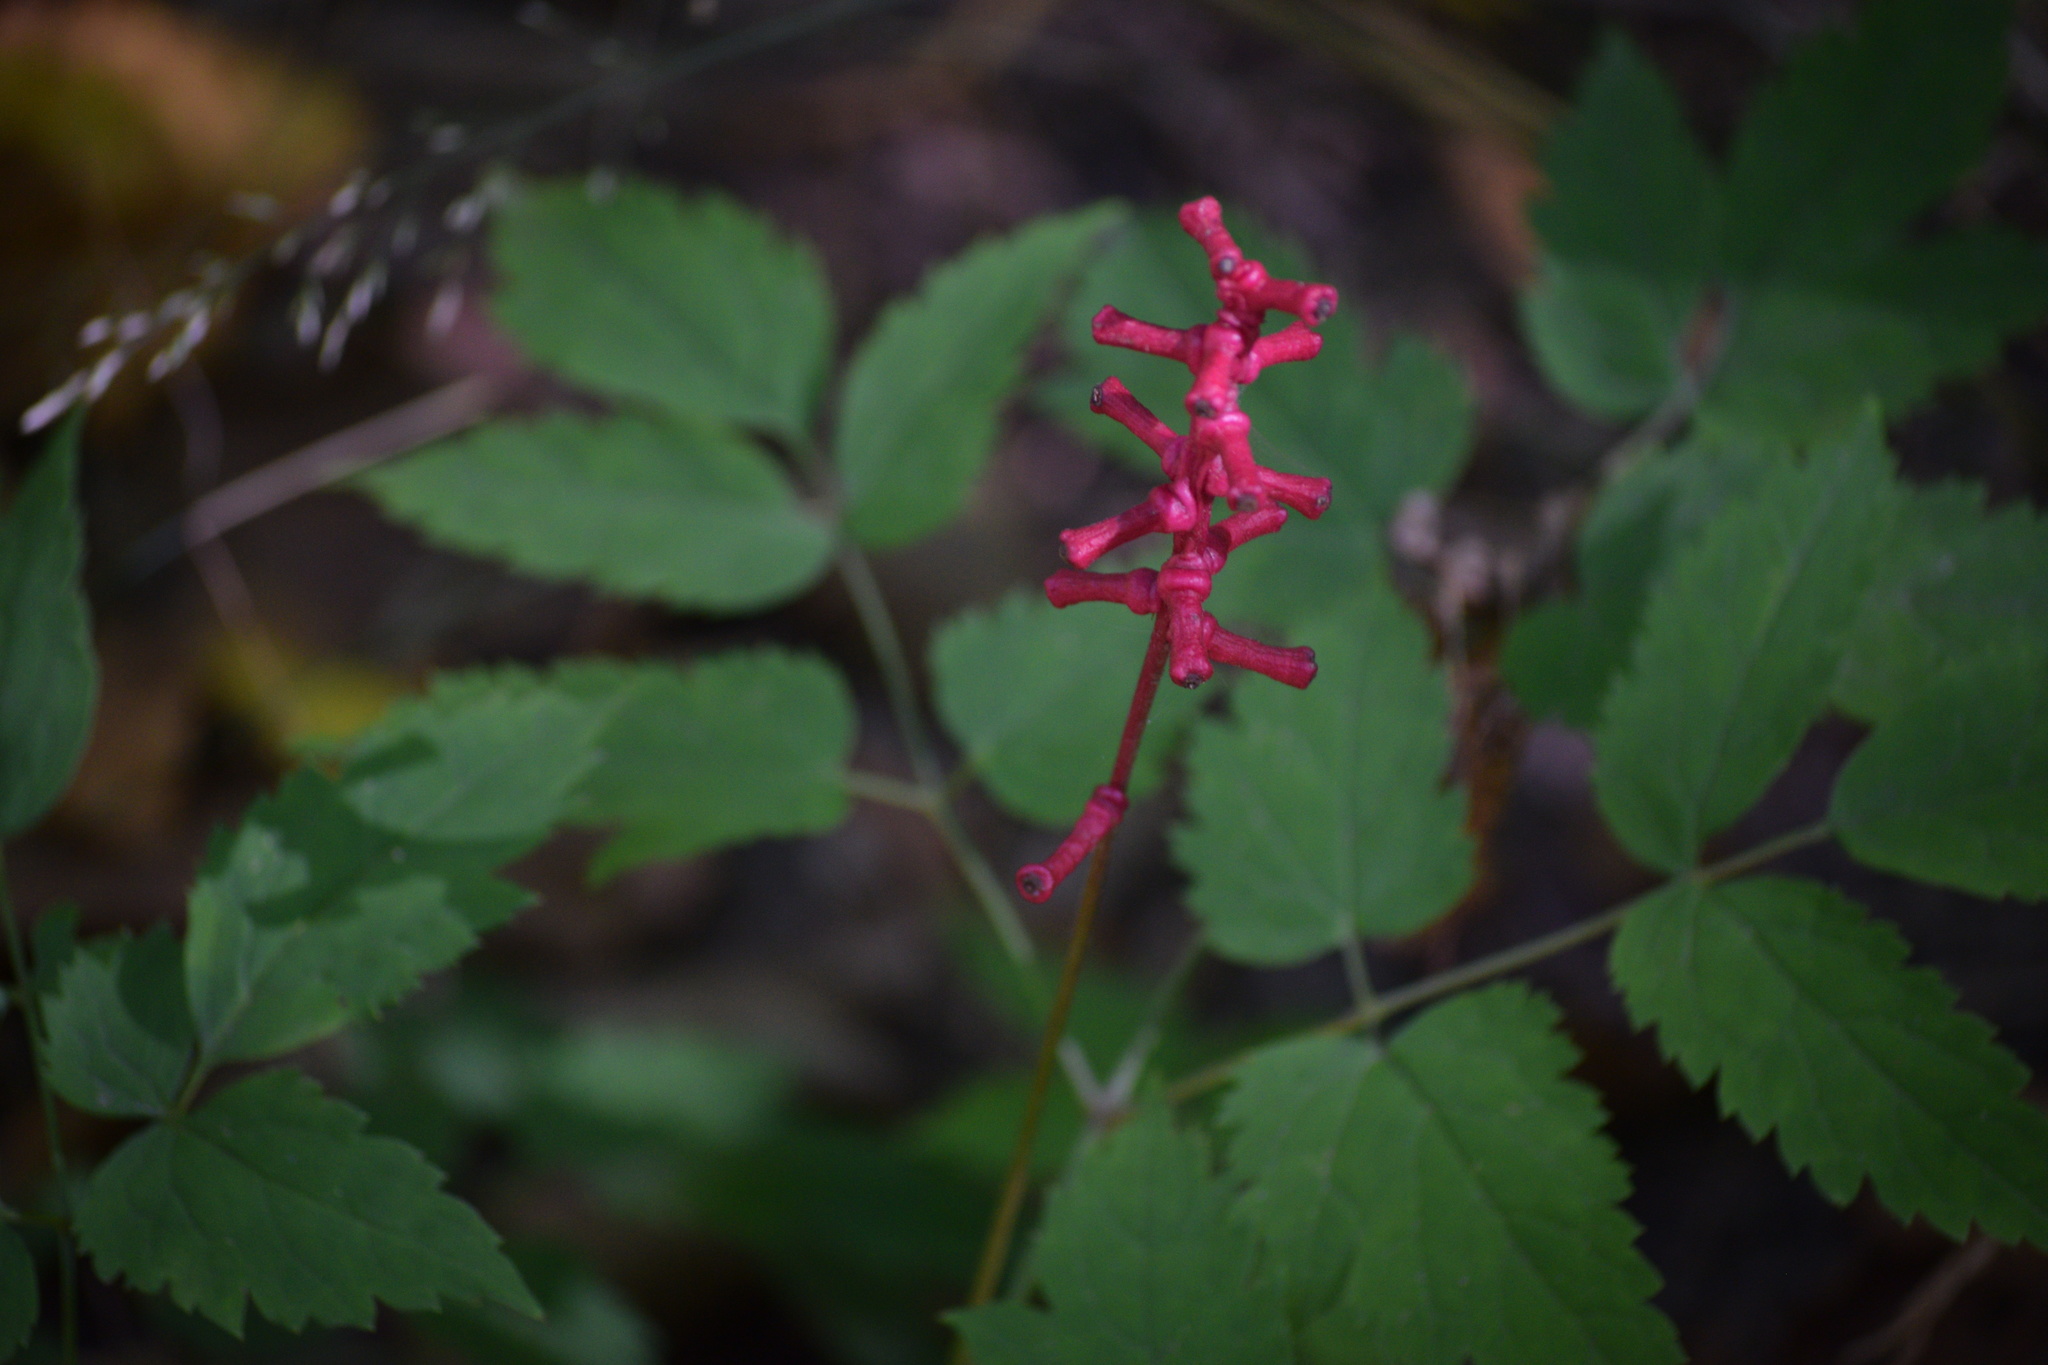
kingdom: Plantae
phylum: Tracheophyta
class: Magnoliopsida
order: Ranunculales
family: Ranunculaceae
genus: Actaea
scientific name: Actaea pachypoda
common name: Doll's-eyes
